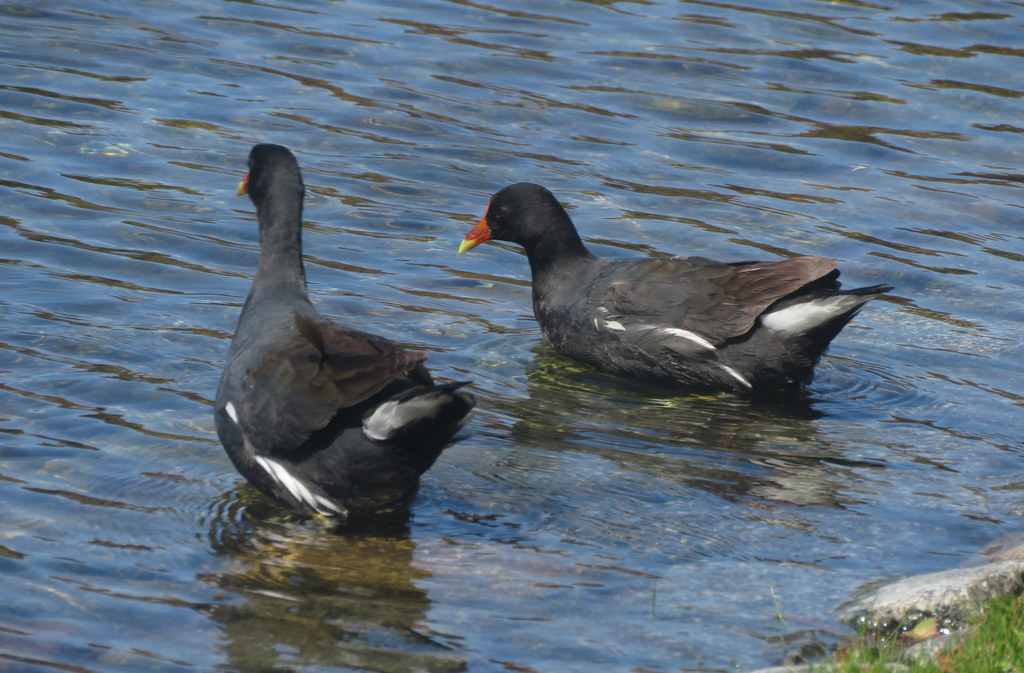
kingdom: Animalia
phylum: Chordata
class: Aves
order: Gruiformes
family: Rallidae
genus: Gallinula
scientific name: Gallinula chloropus
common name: Common moorhen
